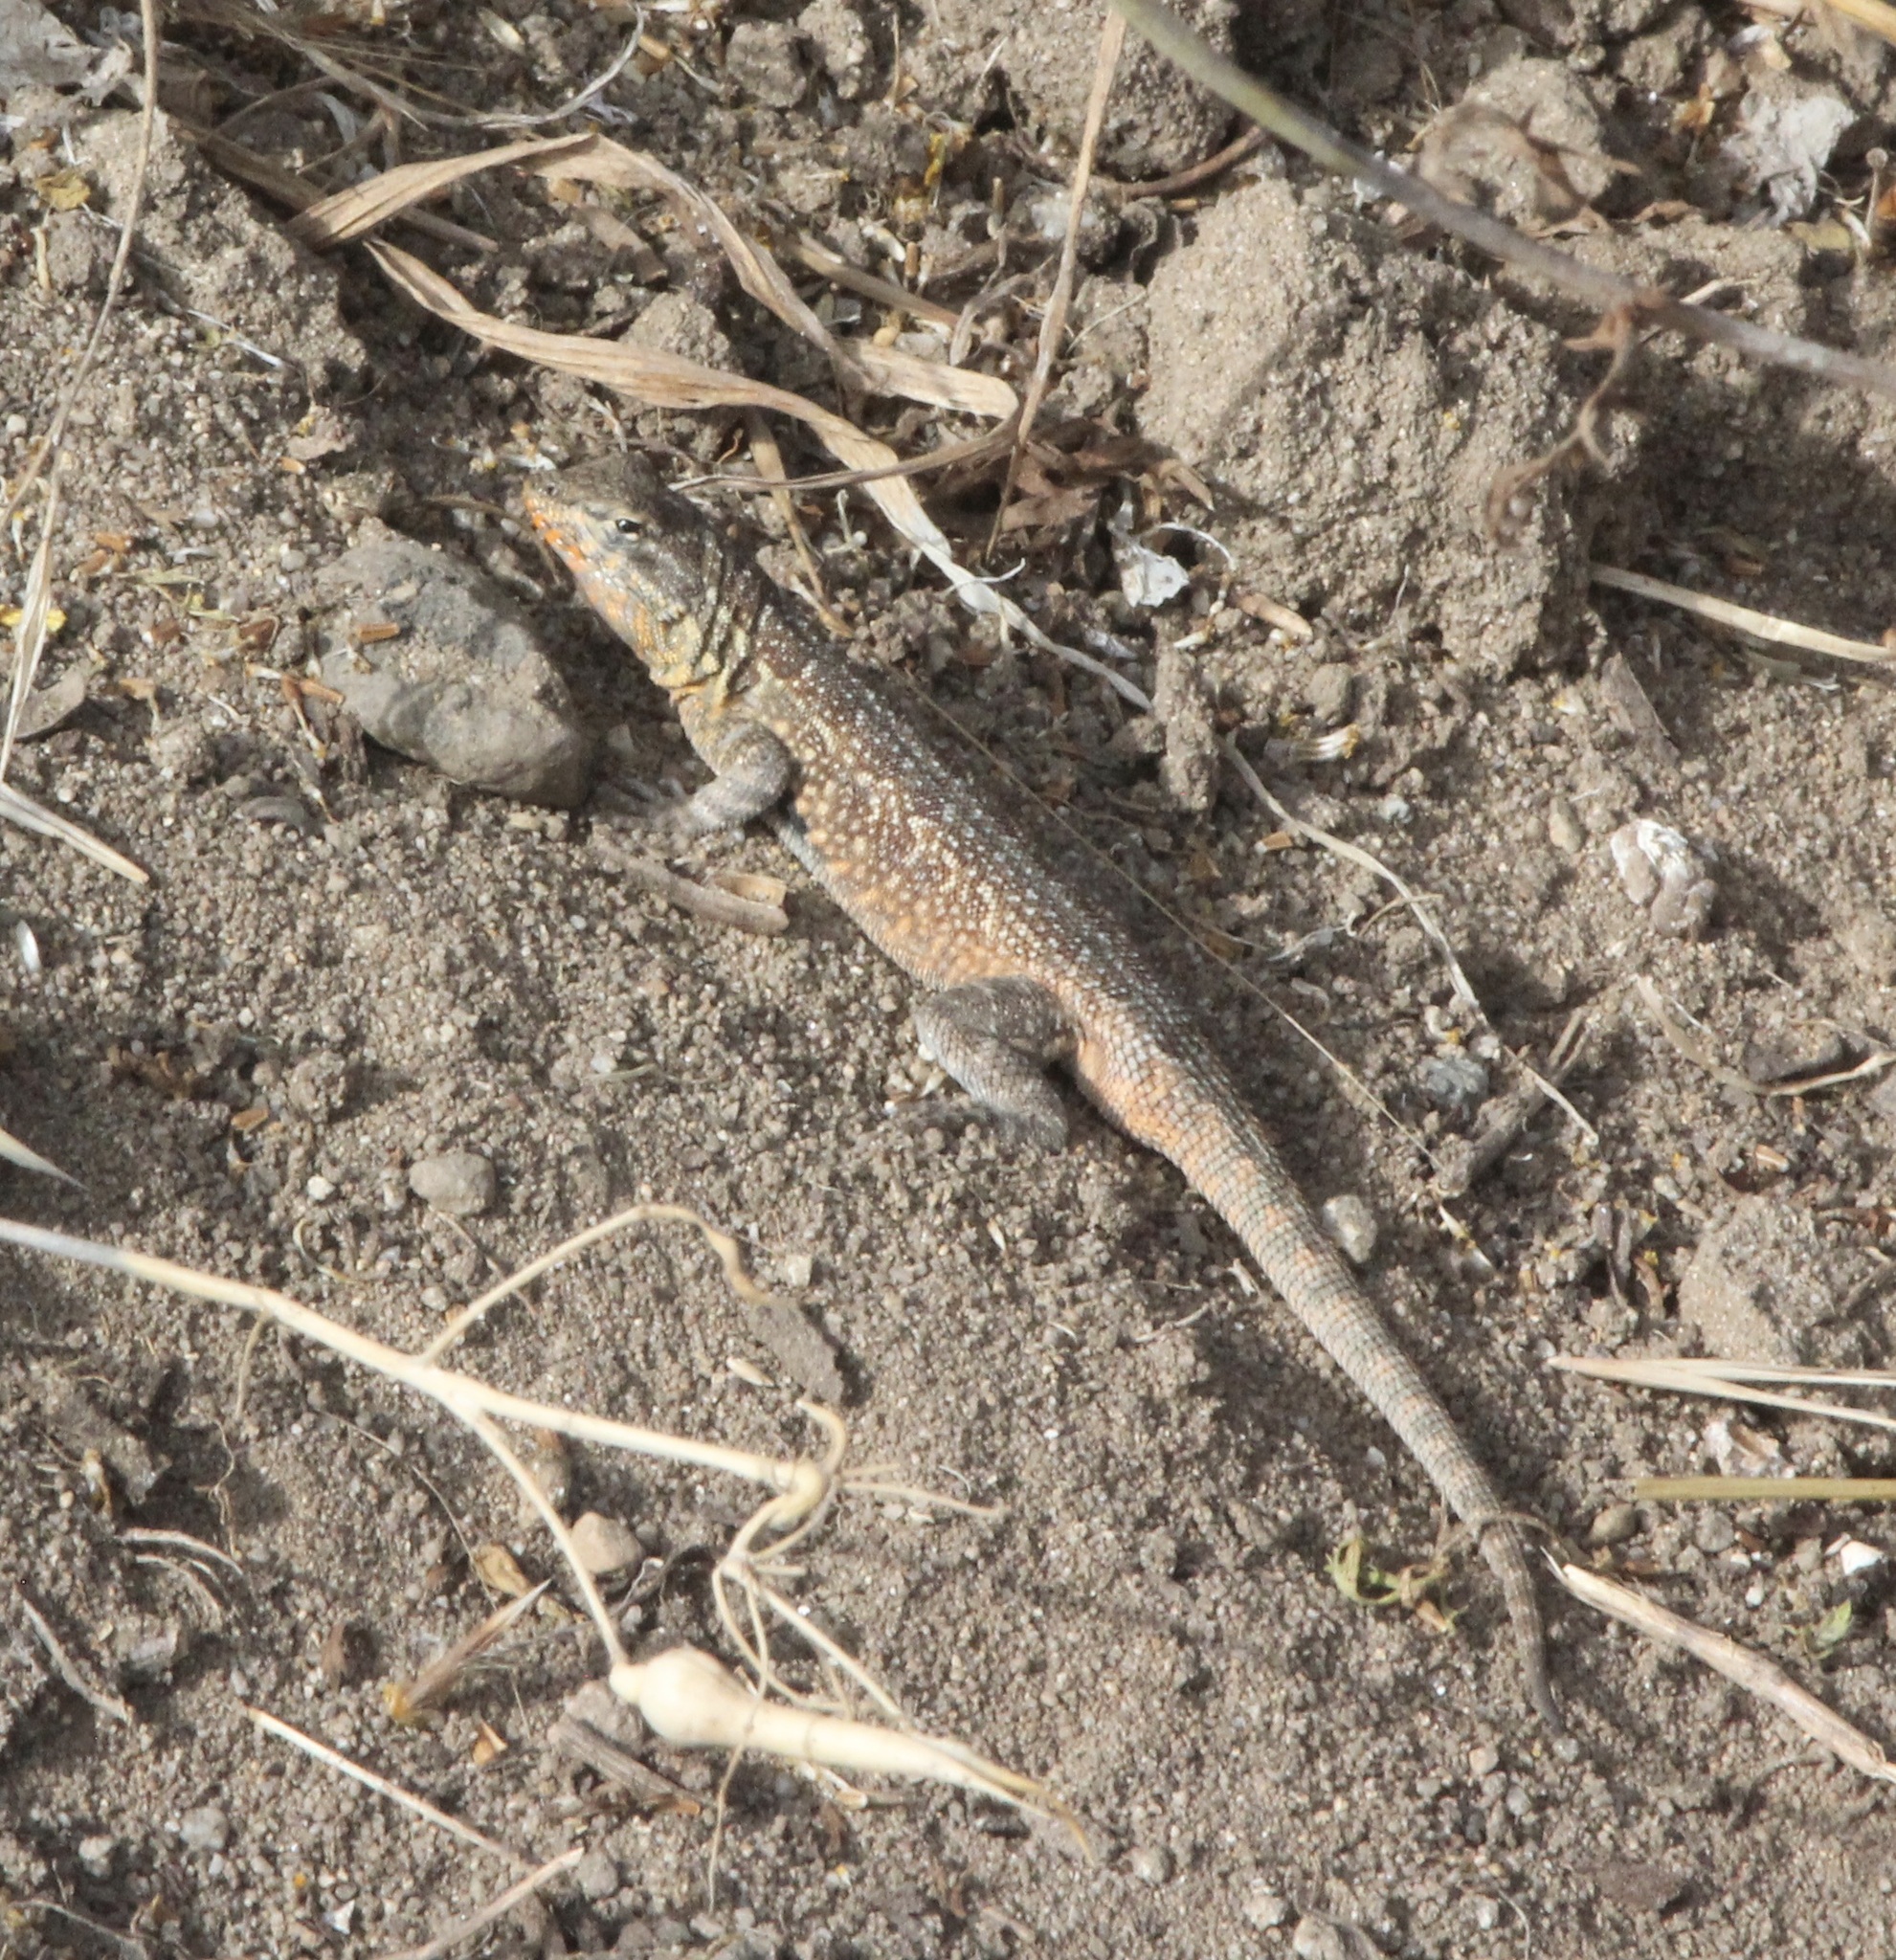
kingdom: Animalia
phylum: Chordata
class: Squamata
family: Phrynosomatidae
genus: Uta
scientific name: Uta stansburiana
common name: Side-blotched lizard
